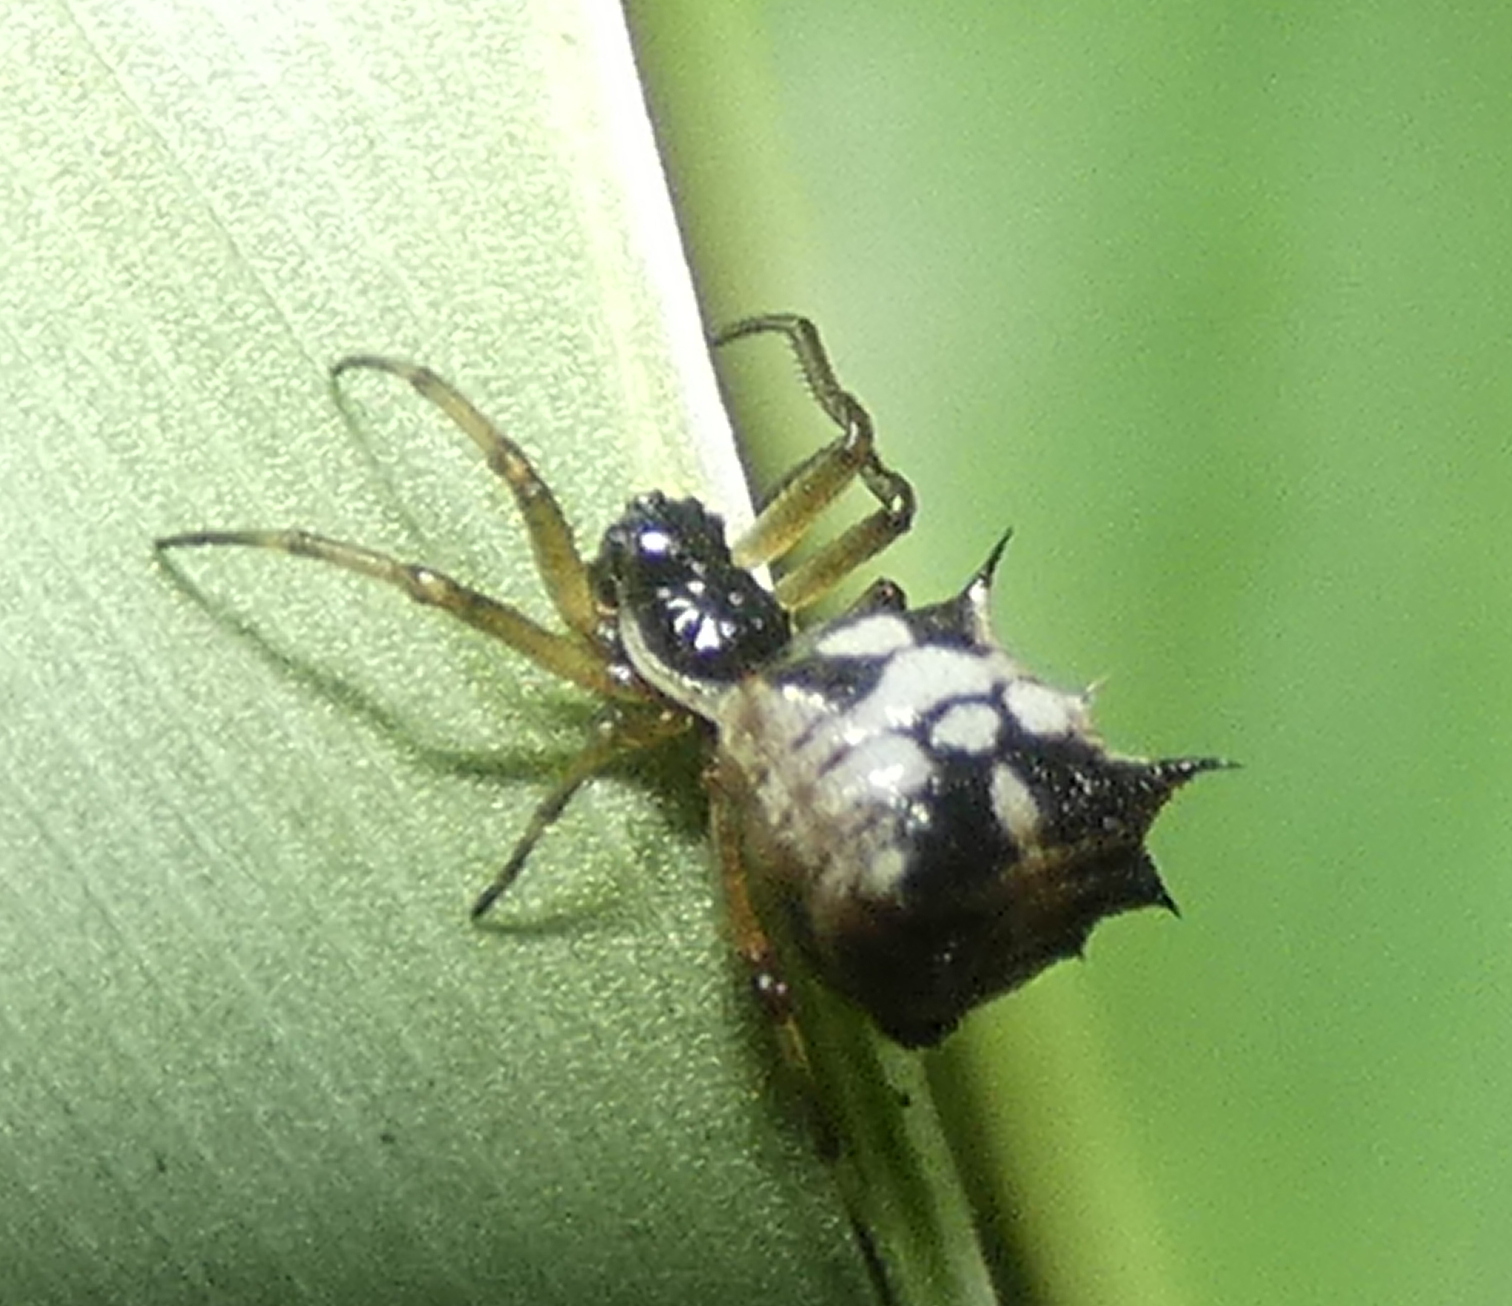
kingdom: Animalia
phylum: Arthropoda
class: Arachnida
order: Araneae
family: Araneidae
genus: Micrathena
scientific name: Micrathena picta
